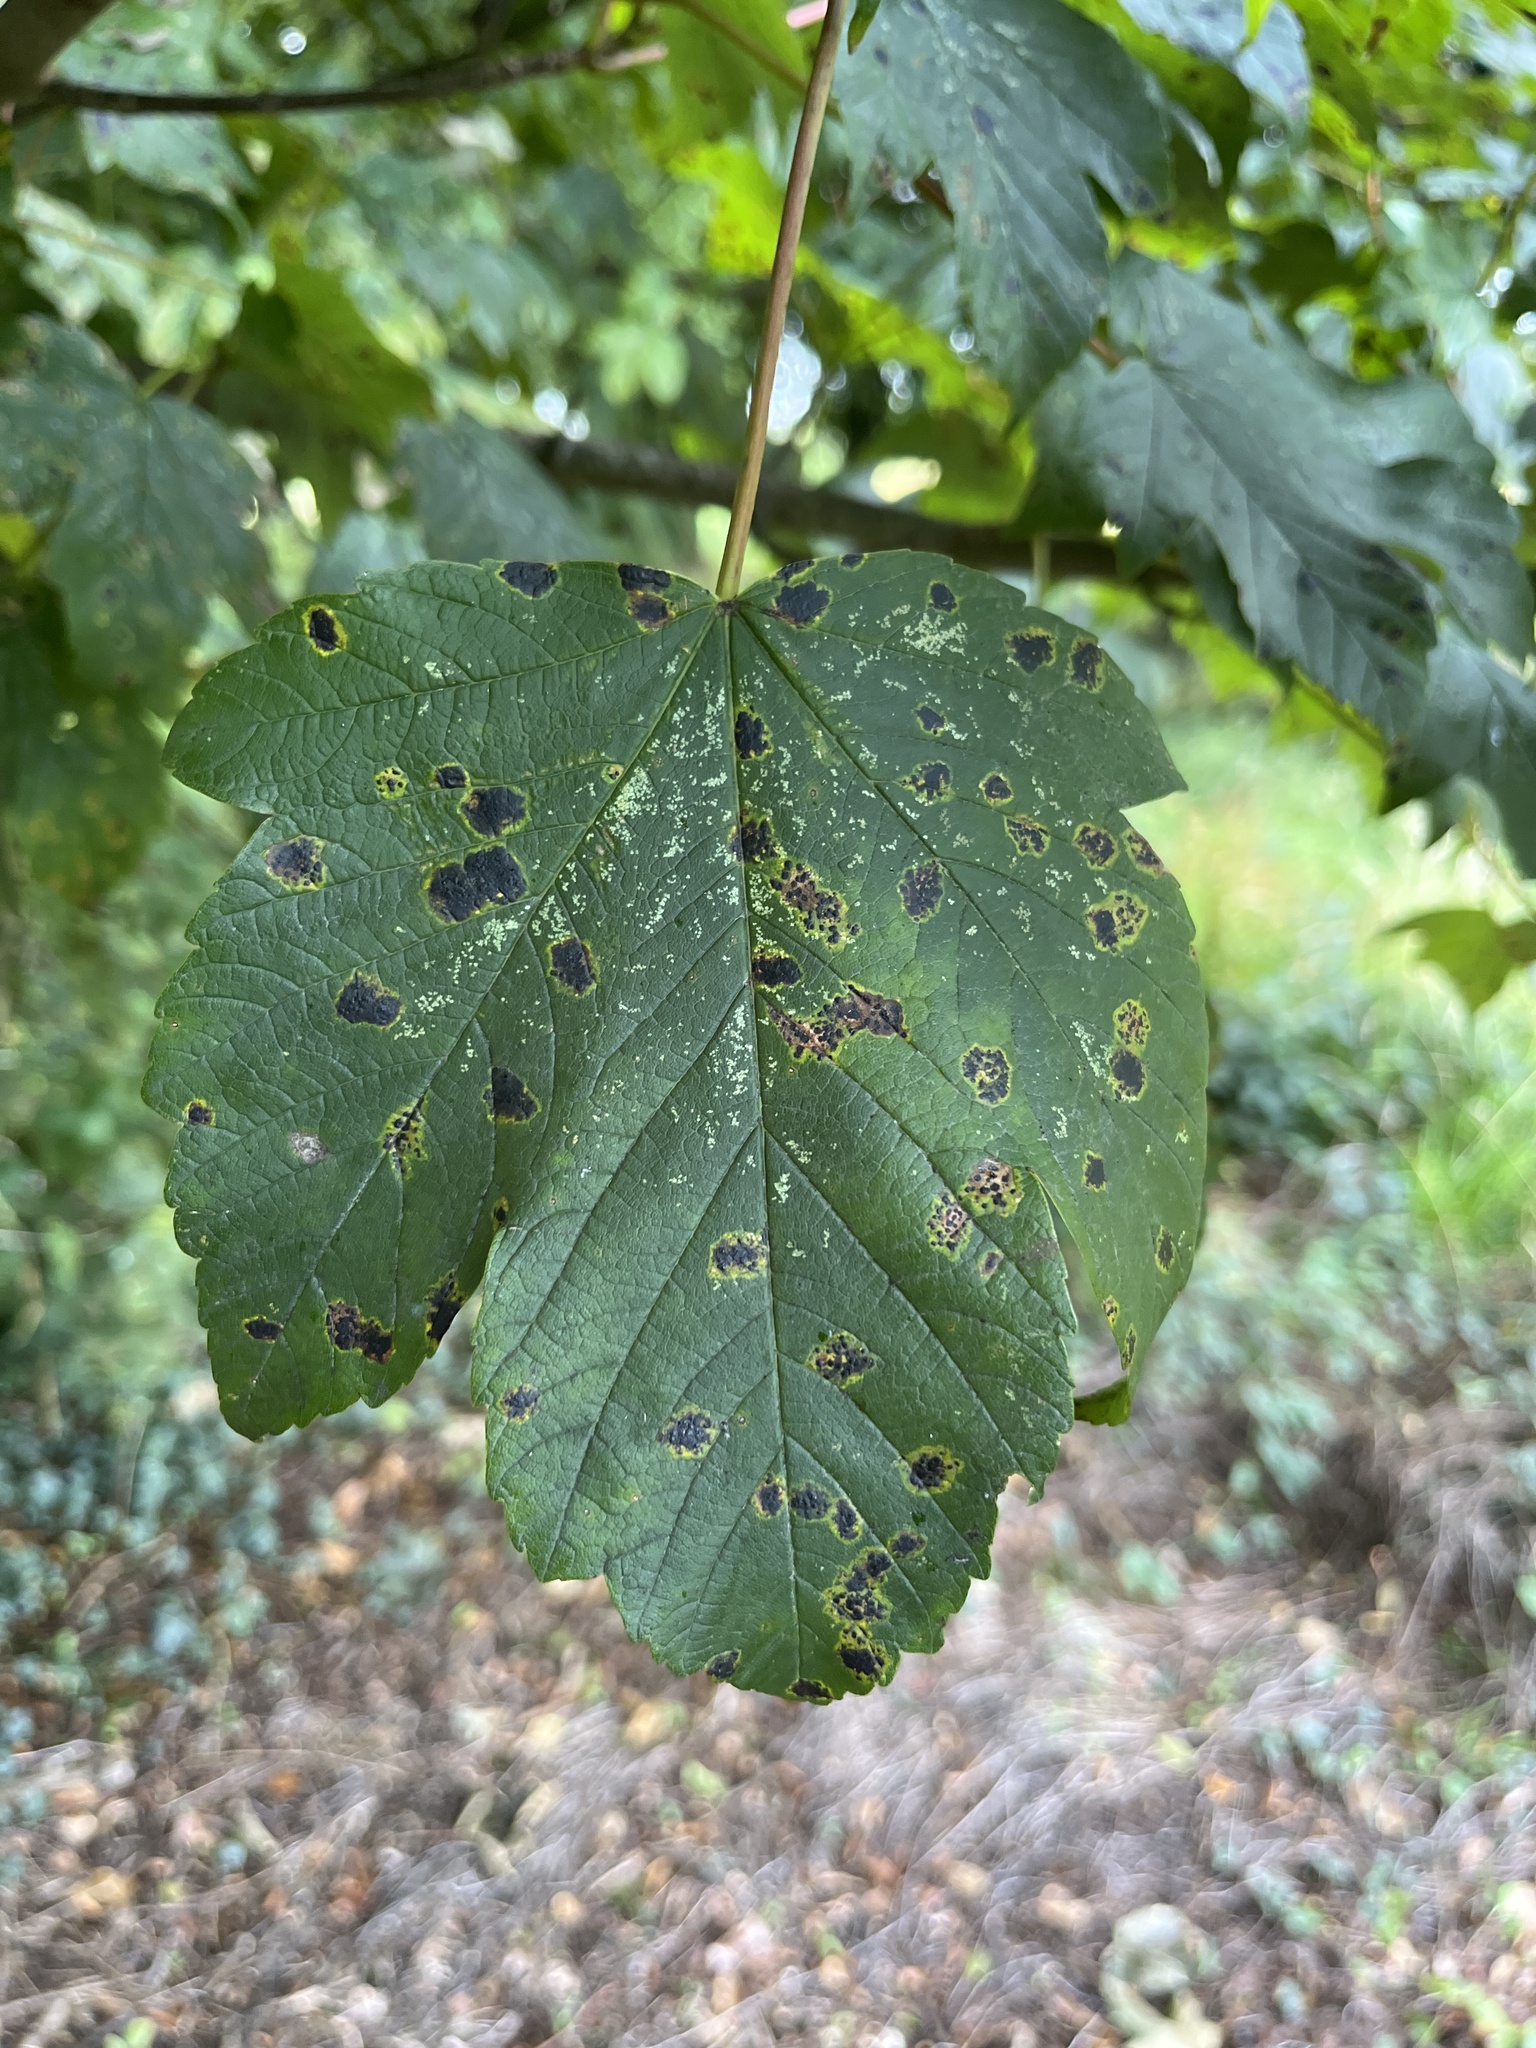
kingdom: Plantae
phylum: Tracheophyta
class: Magnoliopsida
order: Sapindales
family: Sapindaceae
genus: Acer
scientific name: Acer pseudoplatanus
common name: Sycamore
